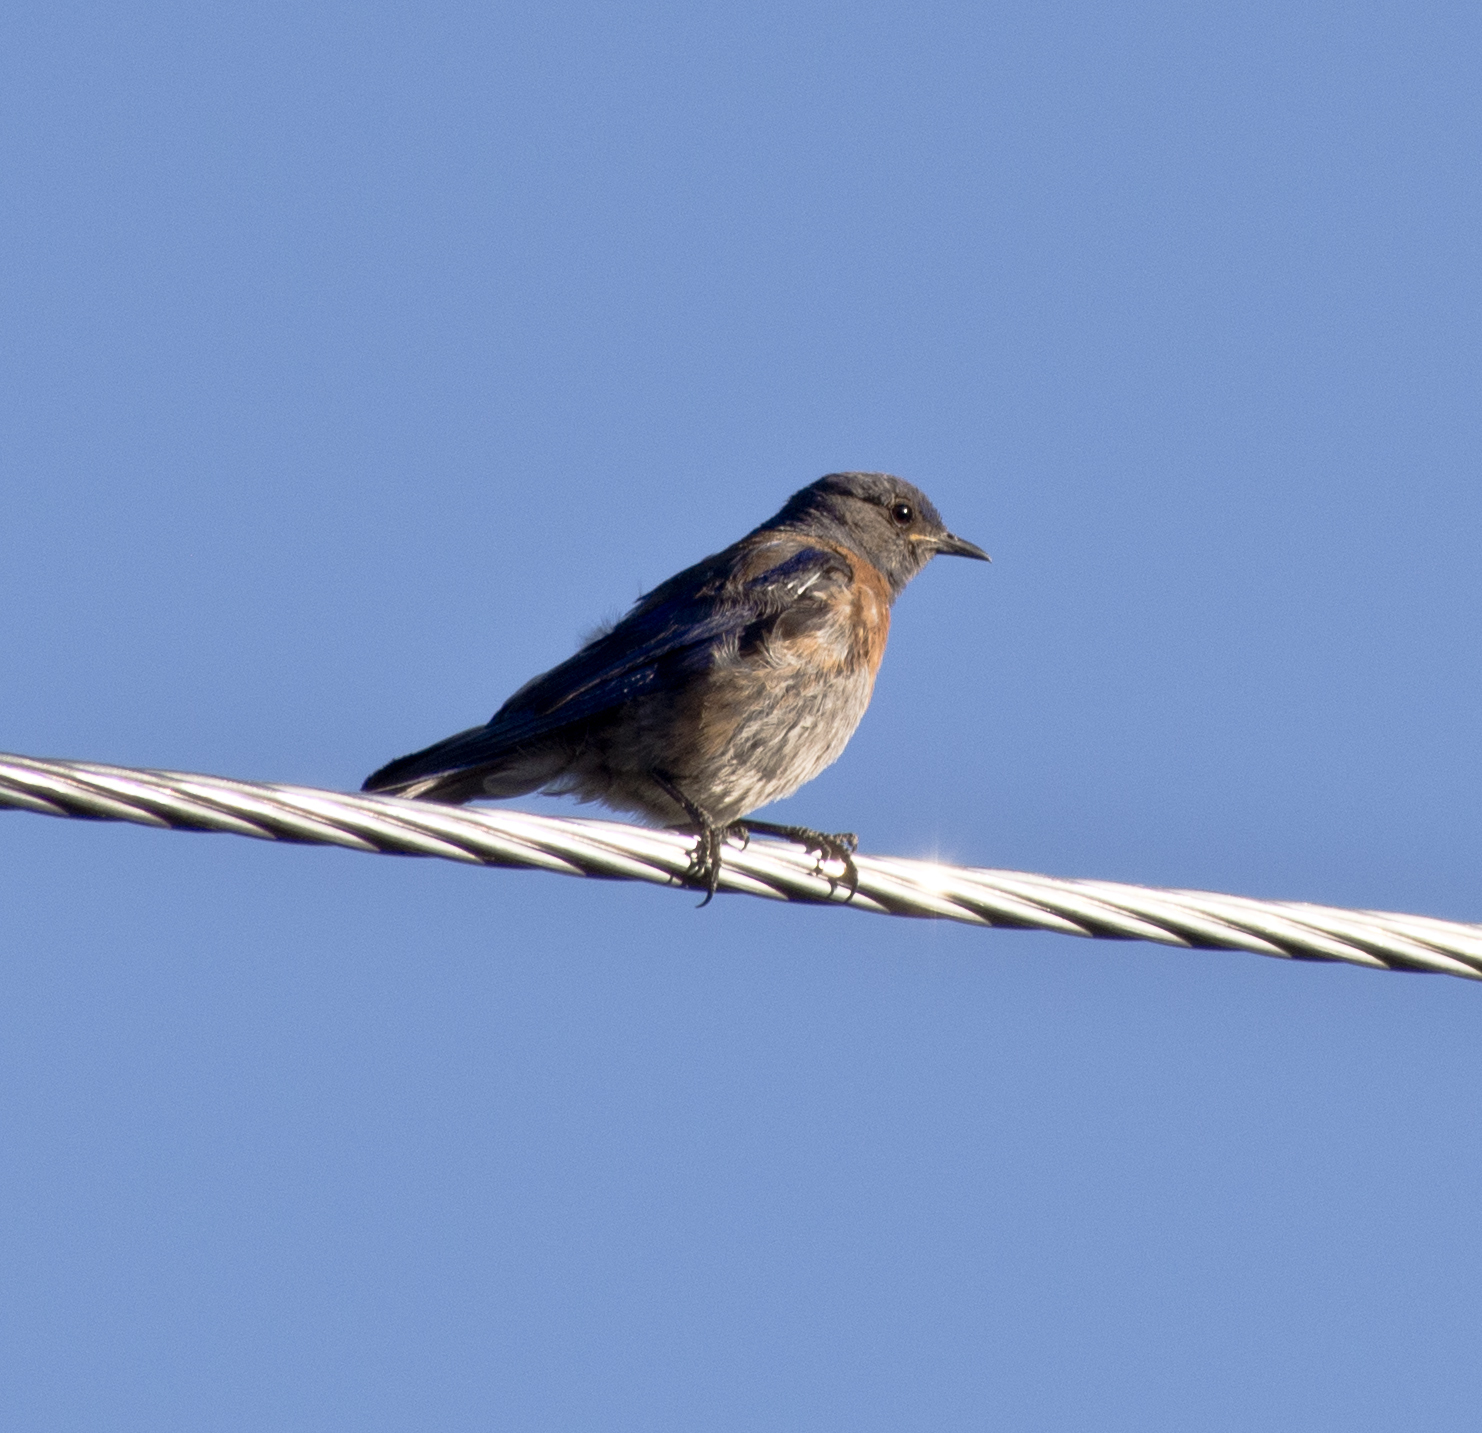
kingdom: Animalia
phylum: Chordata
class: Aves
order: Passeriformes
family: Turdidae
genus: Sialia
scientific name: Sialia mexicana
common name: Western bluebird
